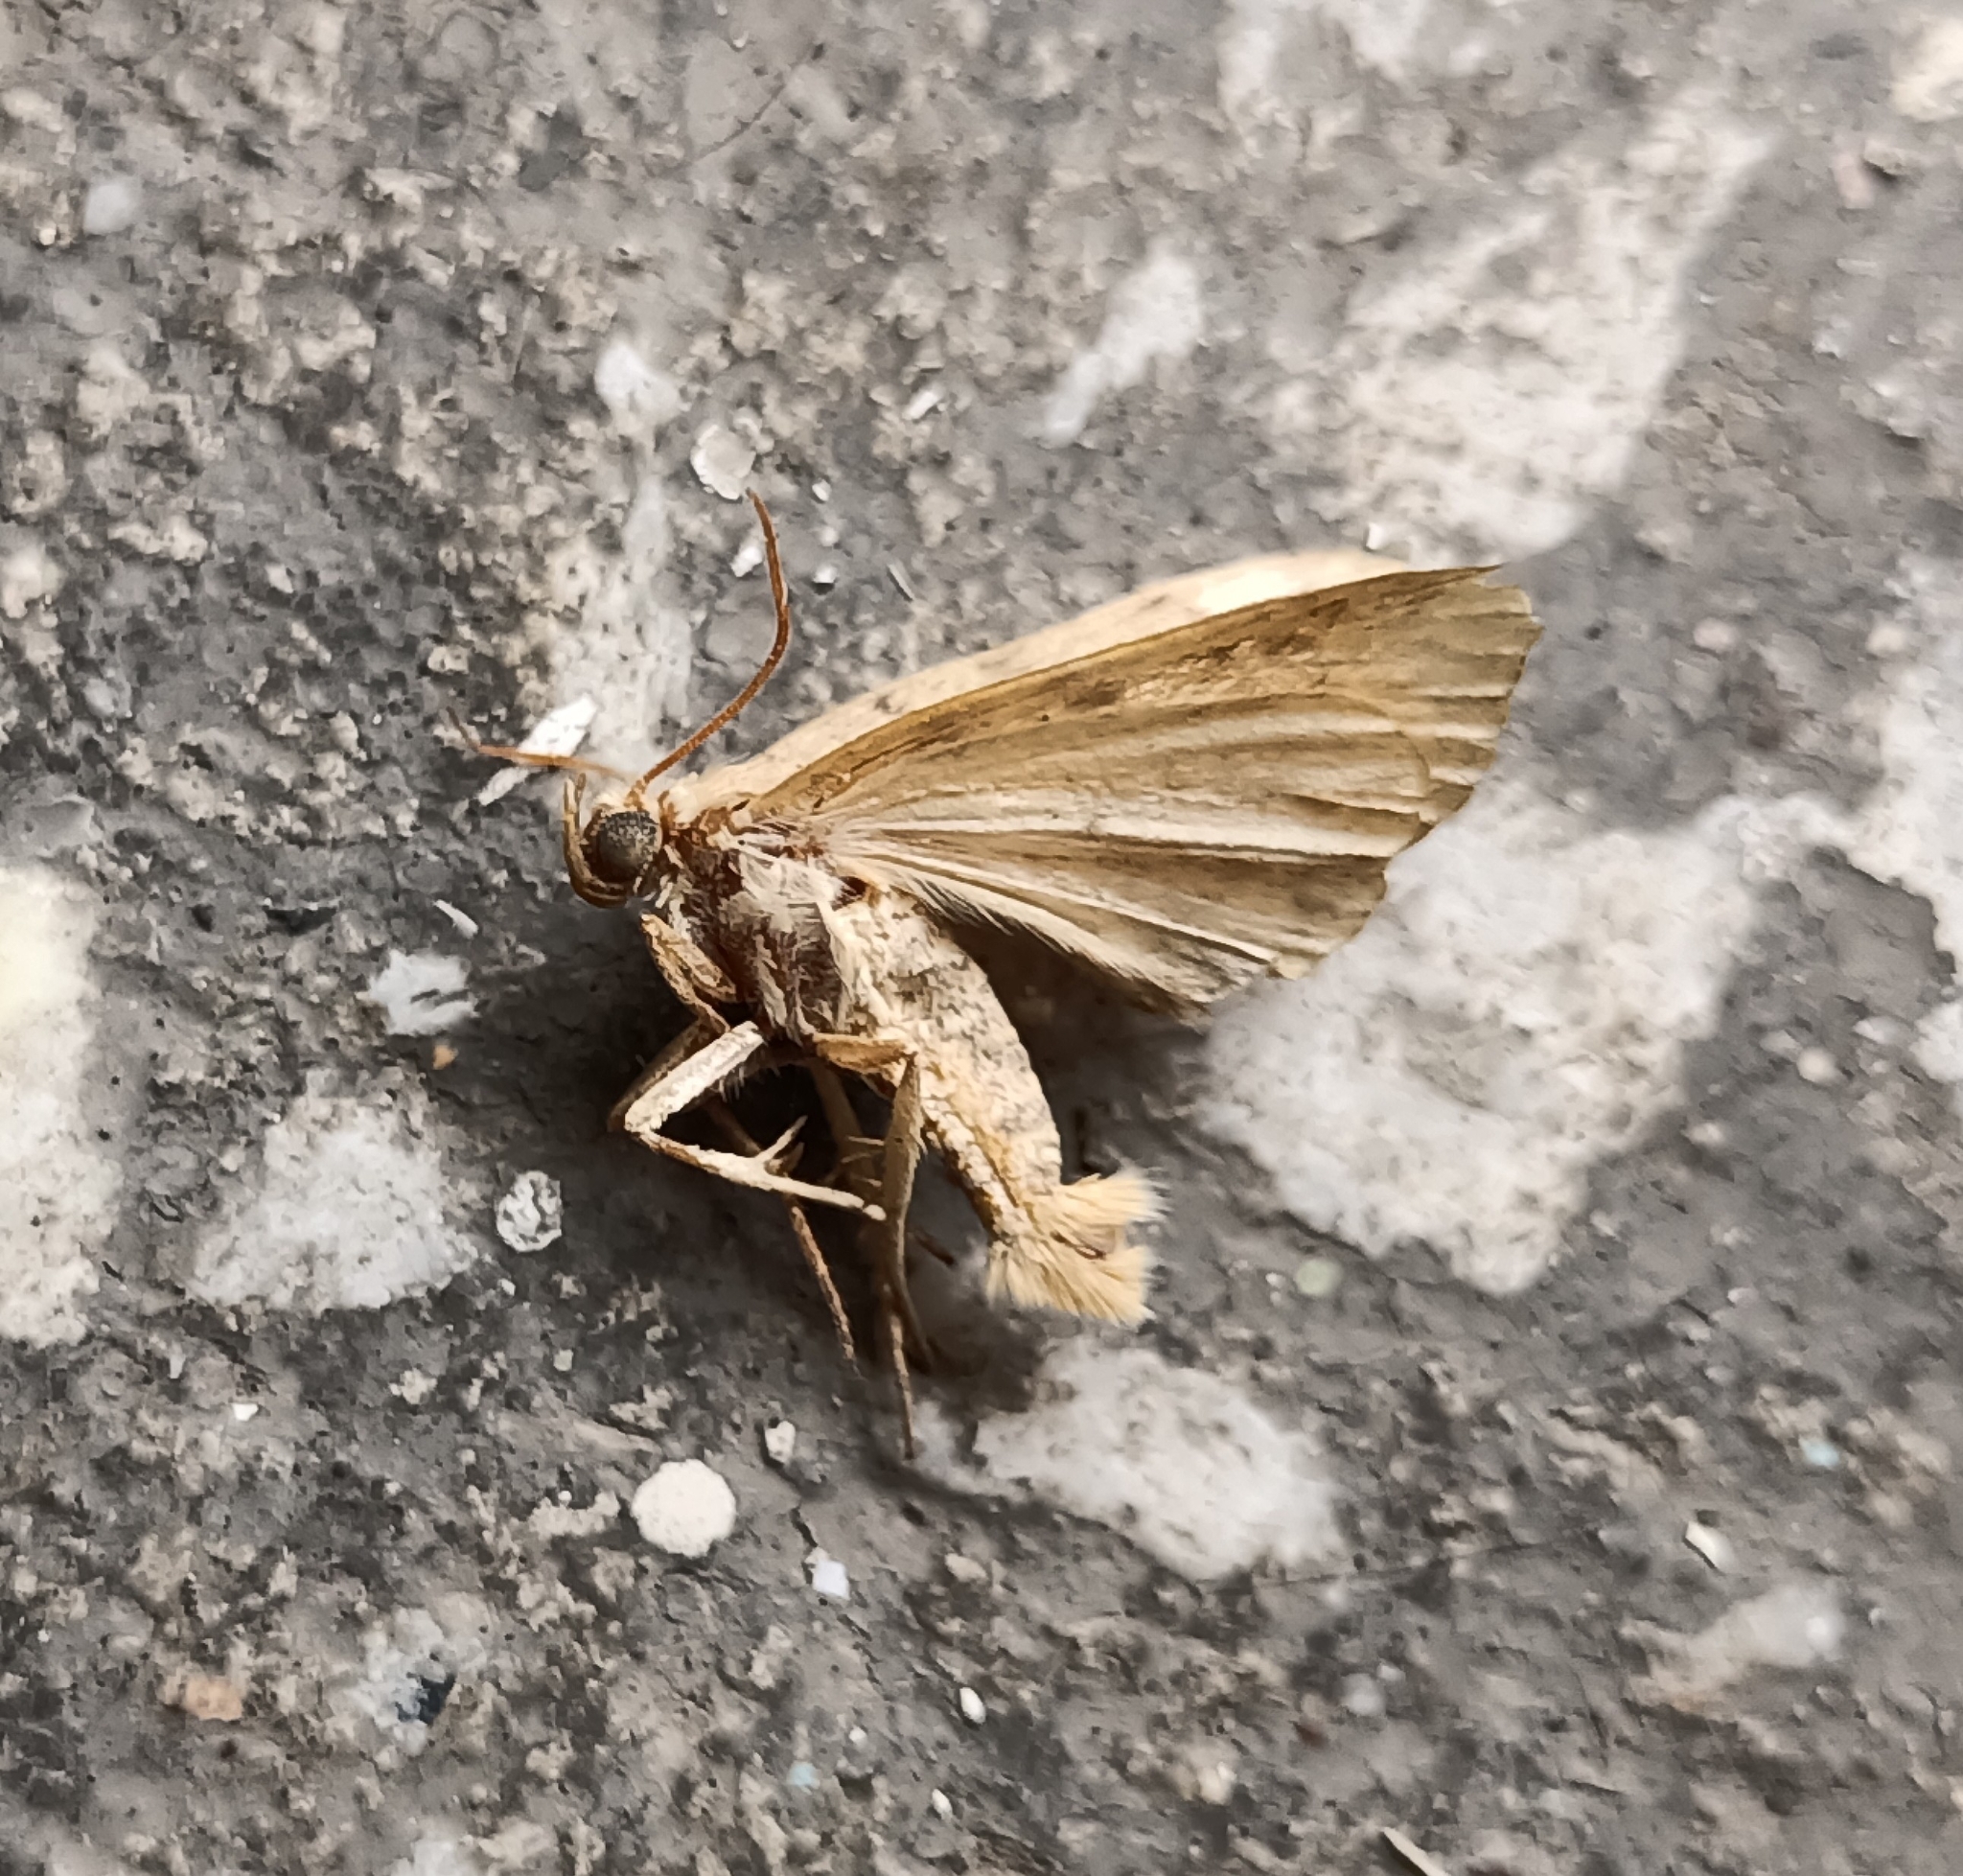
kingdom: Animalia
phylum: Arthropoda
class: Insecta
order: Lepidoptera
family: Noctuidae
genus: Cosmia
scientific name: Cosmia trapezina
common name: Dun-bar
